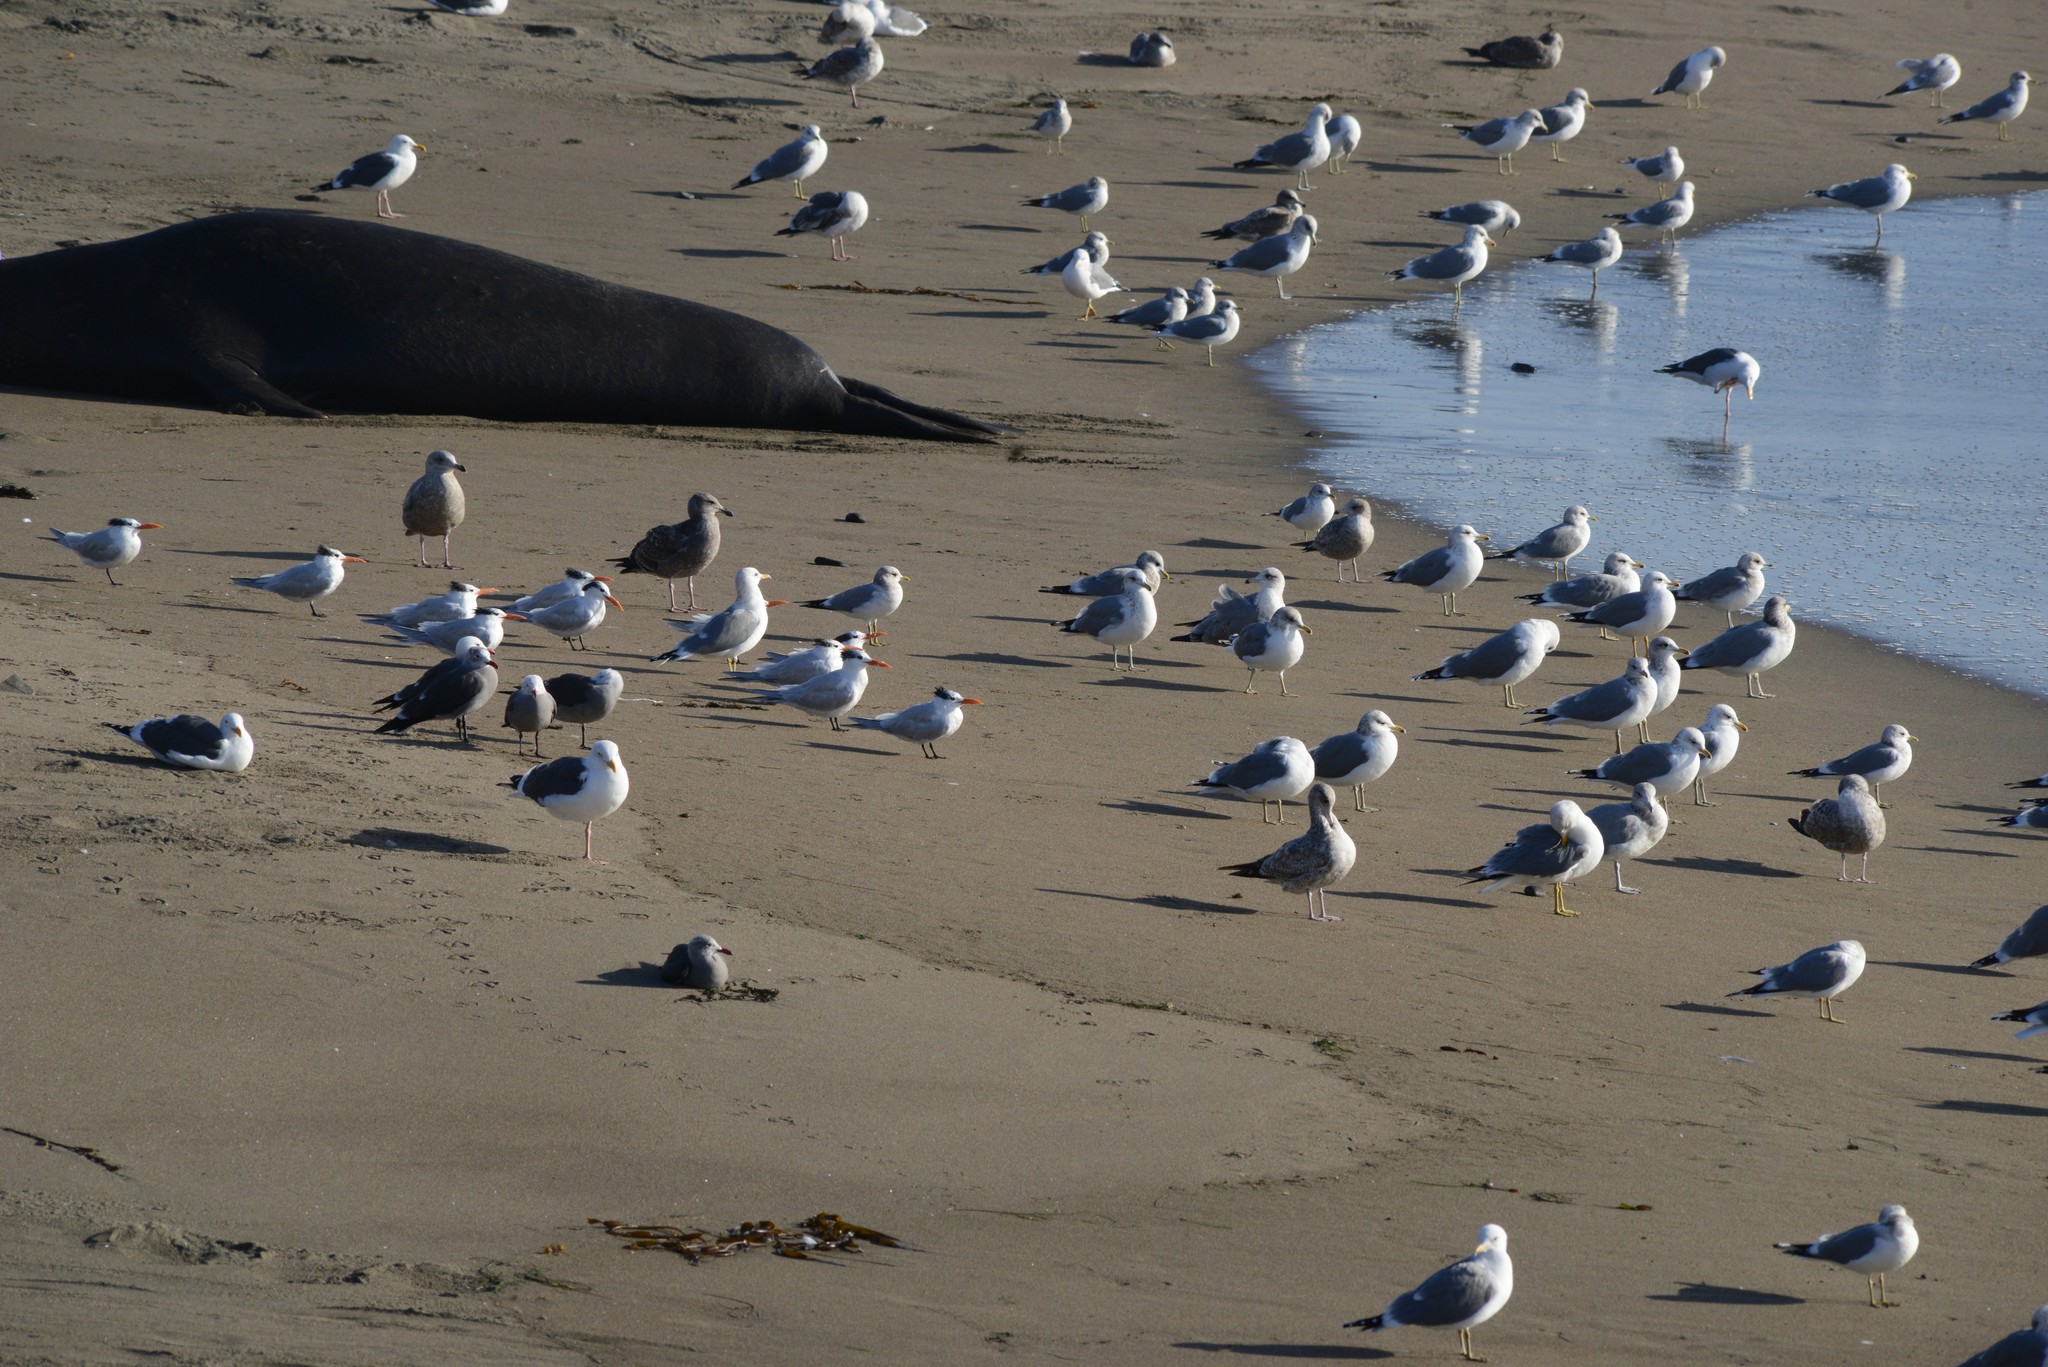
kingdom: Animalia
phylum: Chordata
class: Aves
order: Charadriiformes
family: Laridae
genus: Larus
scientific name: Larus occidentalis
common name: Western gull
